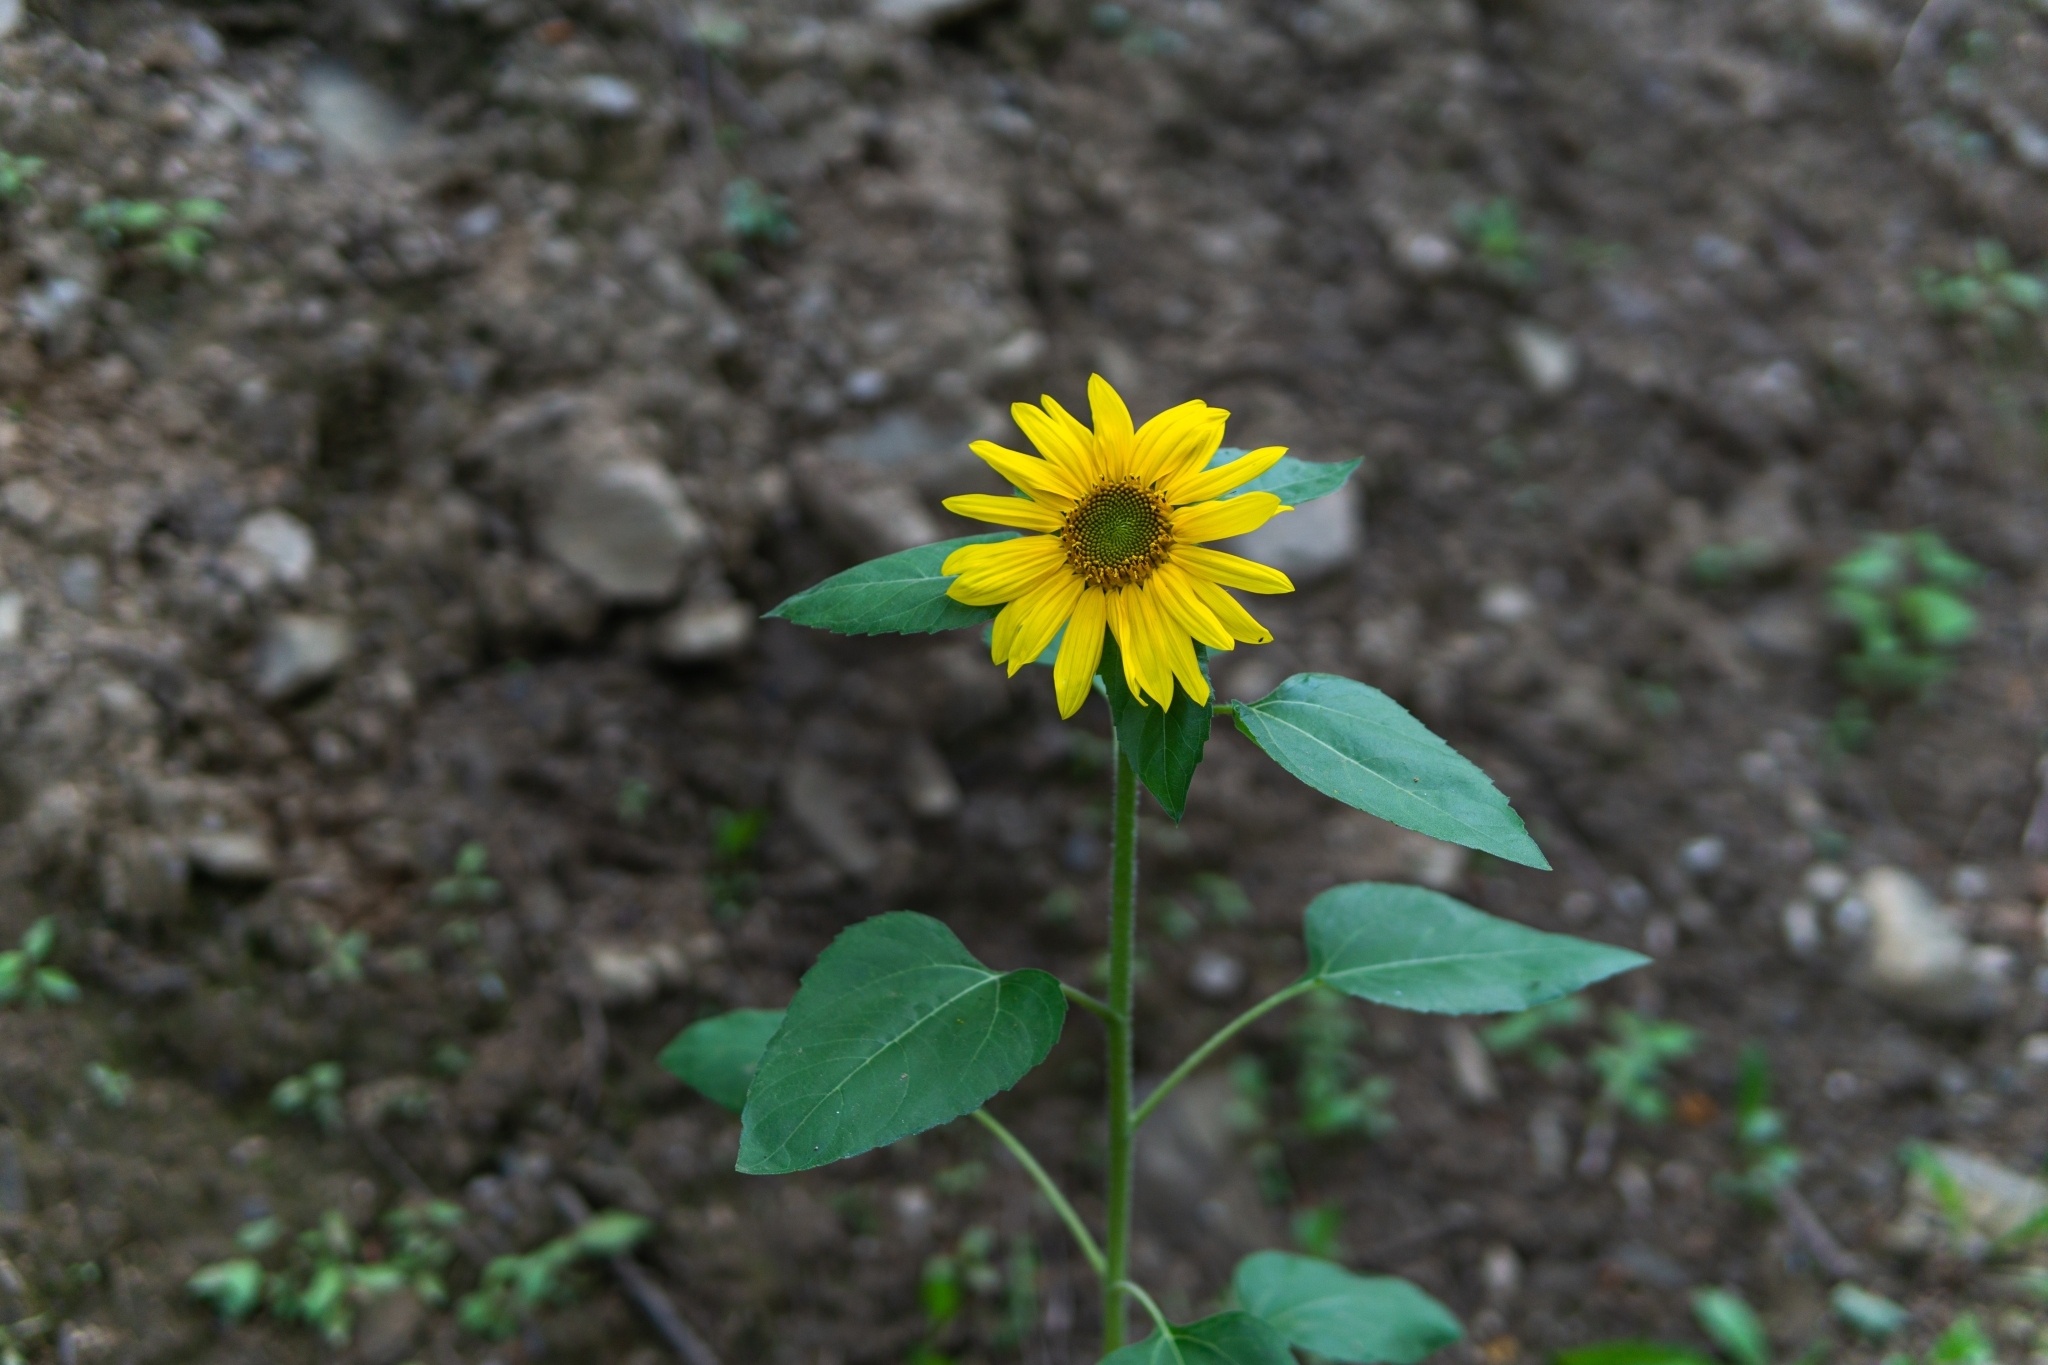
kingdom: Plantae
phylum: Tracheophyta
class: Magnoliopsida
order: Asterales
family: Asteraceae
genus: Helianthus
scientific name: Helianthus annuus
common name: Sunflower
